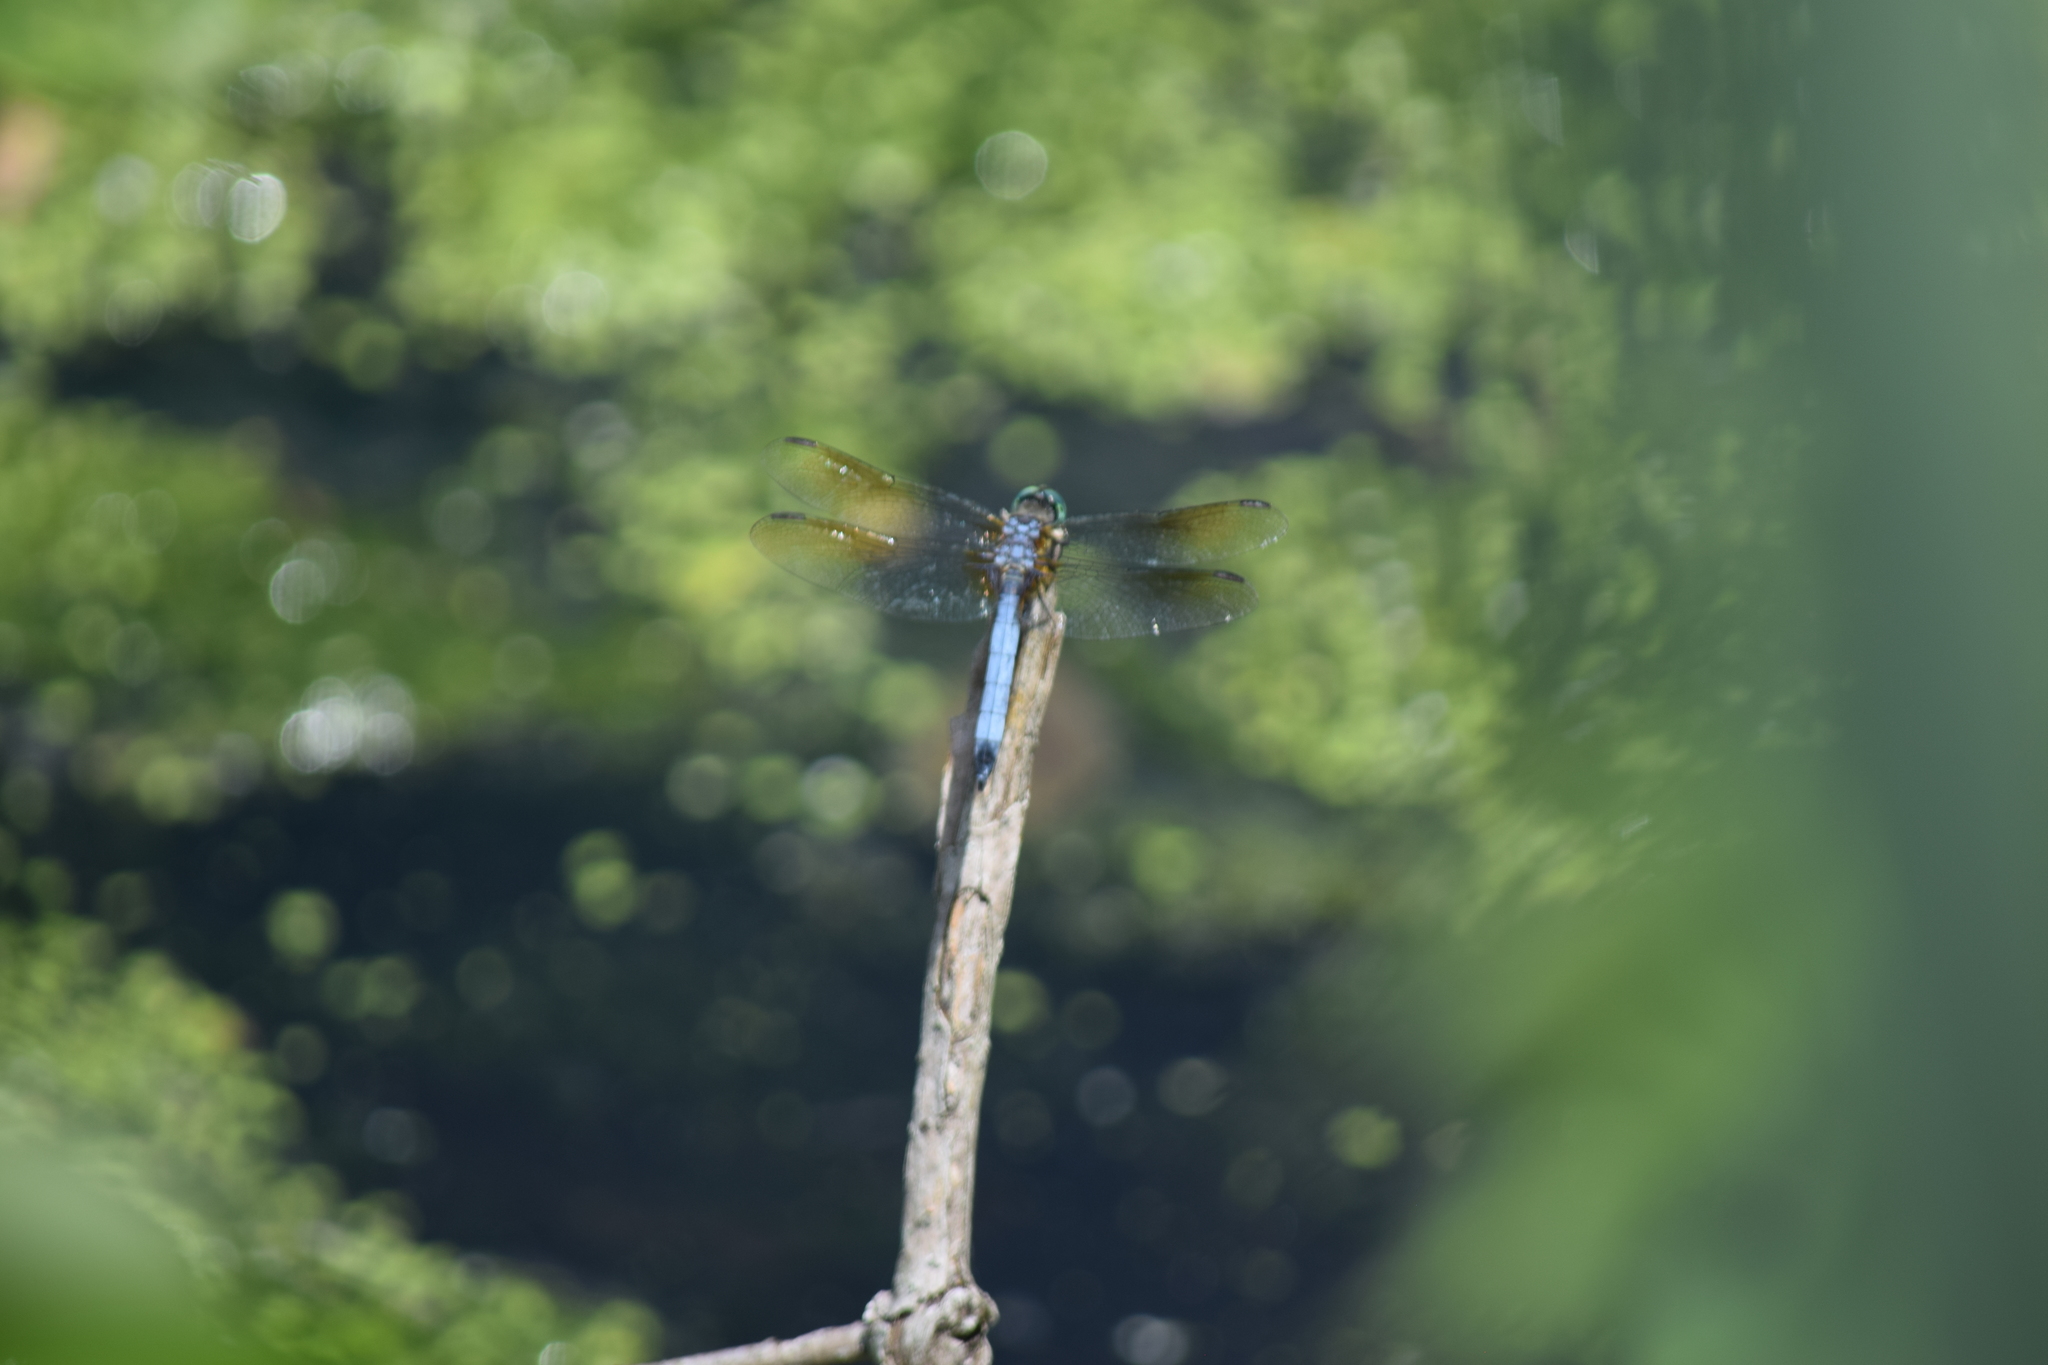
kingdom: Animalia
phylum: Arthropoda
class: Insecta
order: Odonata
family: Libellulidae
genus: Pachydiplax
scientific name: Pachydiplax longipennis
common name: Blue dasher
